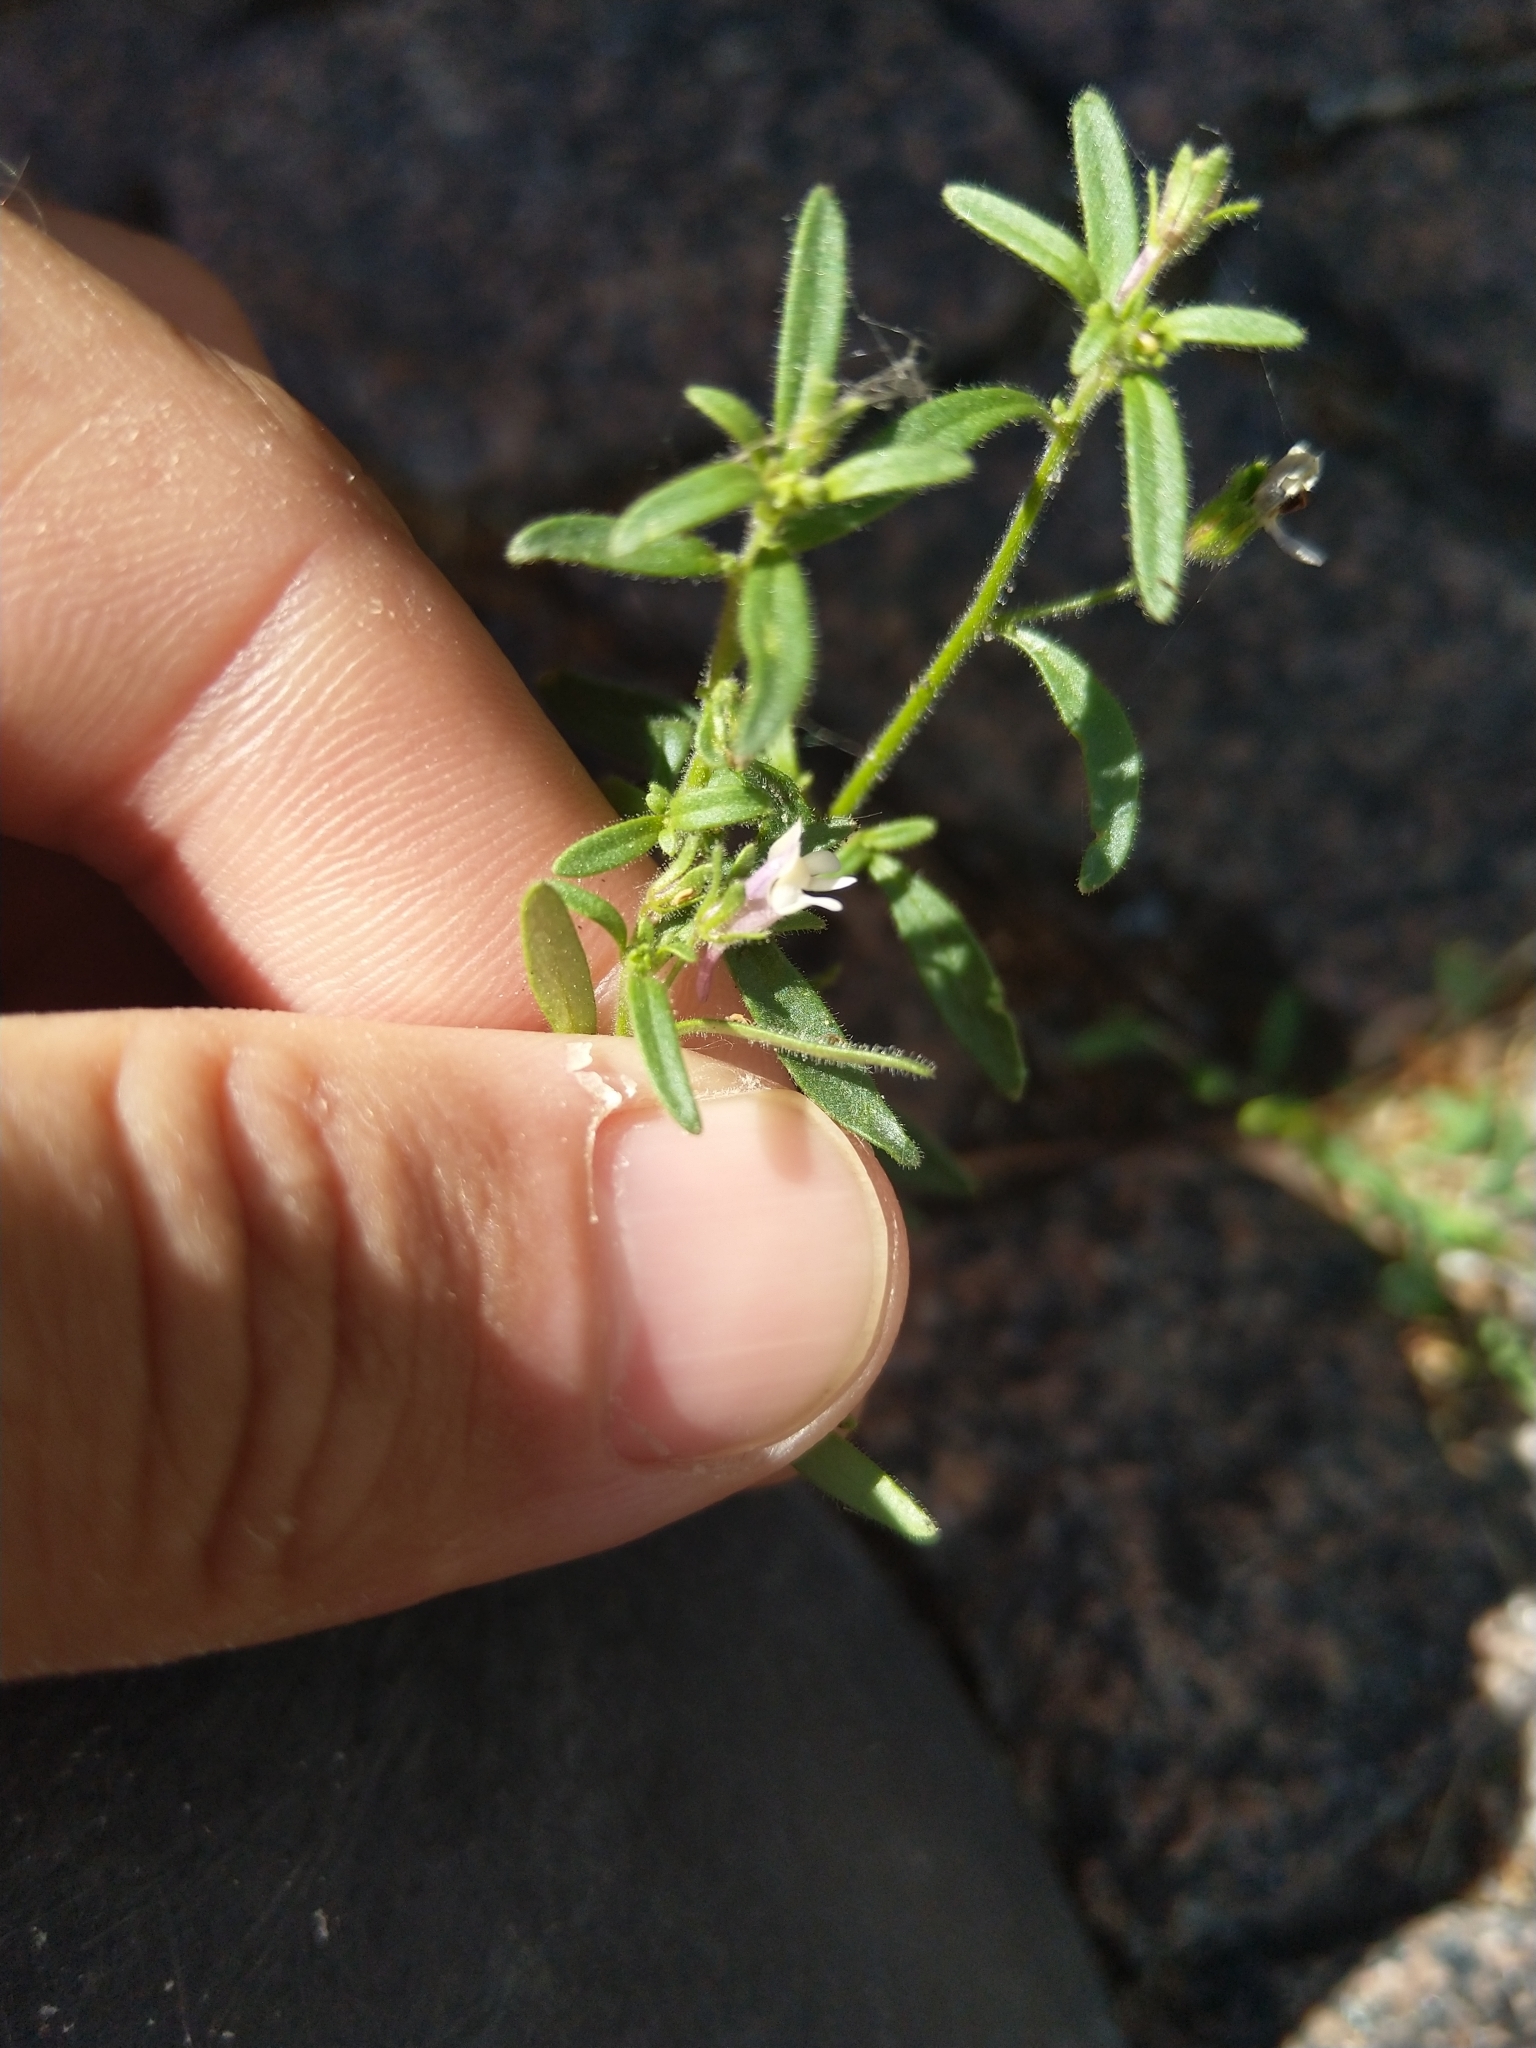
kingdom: Plantae
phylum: Tracheophyta
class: Magnoliopsida
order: Lamiales
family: Plantaginaceae
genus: Chaenorhinum
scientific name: Chaenorhinum minus
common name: Dwarf snapdragon
